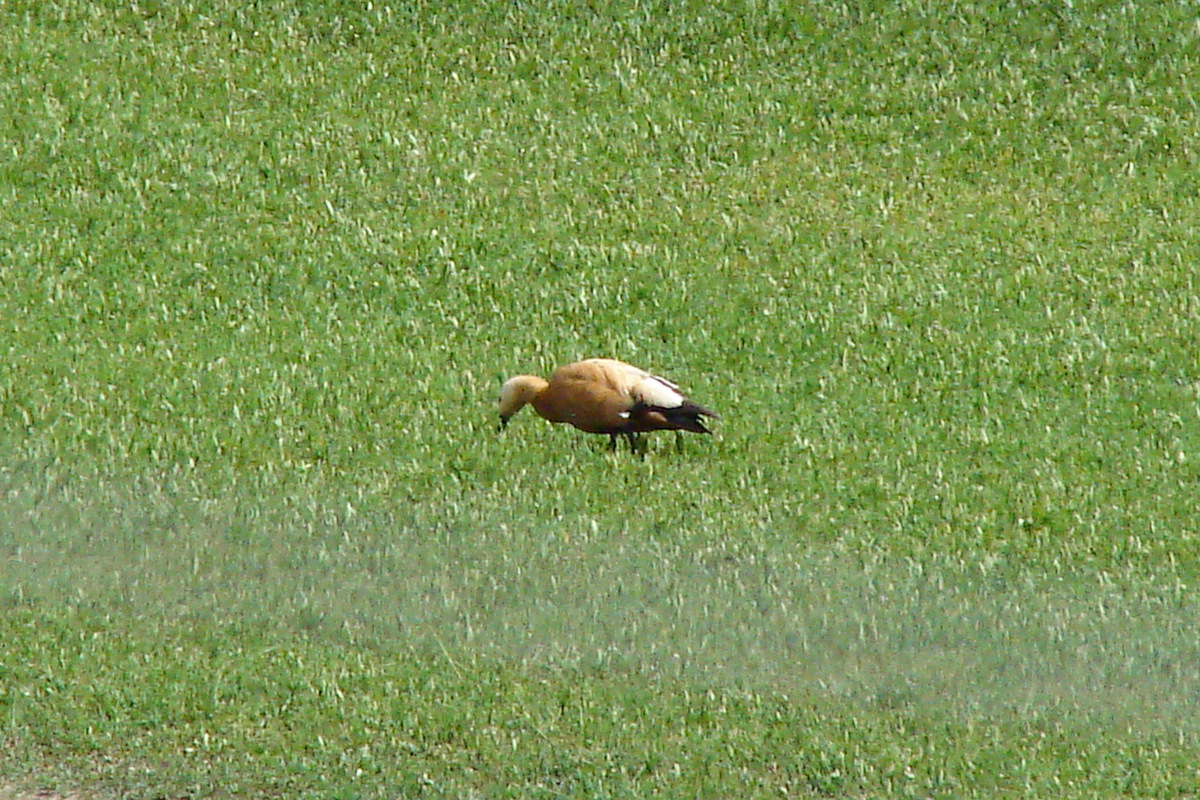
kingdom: Animalia
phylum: Chordata
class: Aves
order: Anseriformes
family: Anatidae
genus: Tadorna
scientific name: Tadorna ferruginea
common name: Ruddy shelduck
